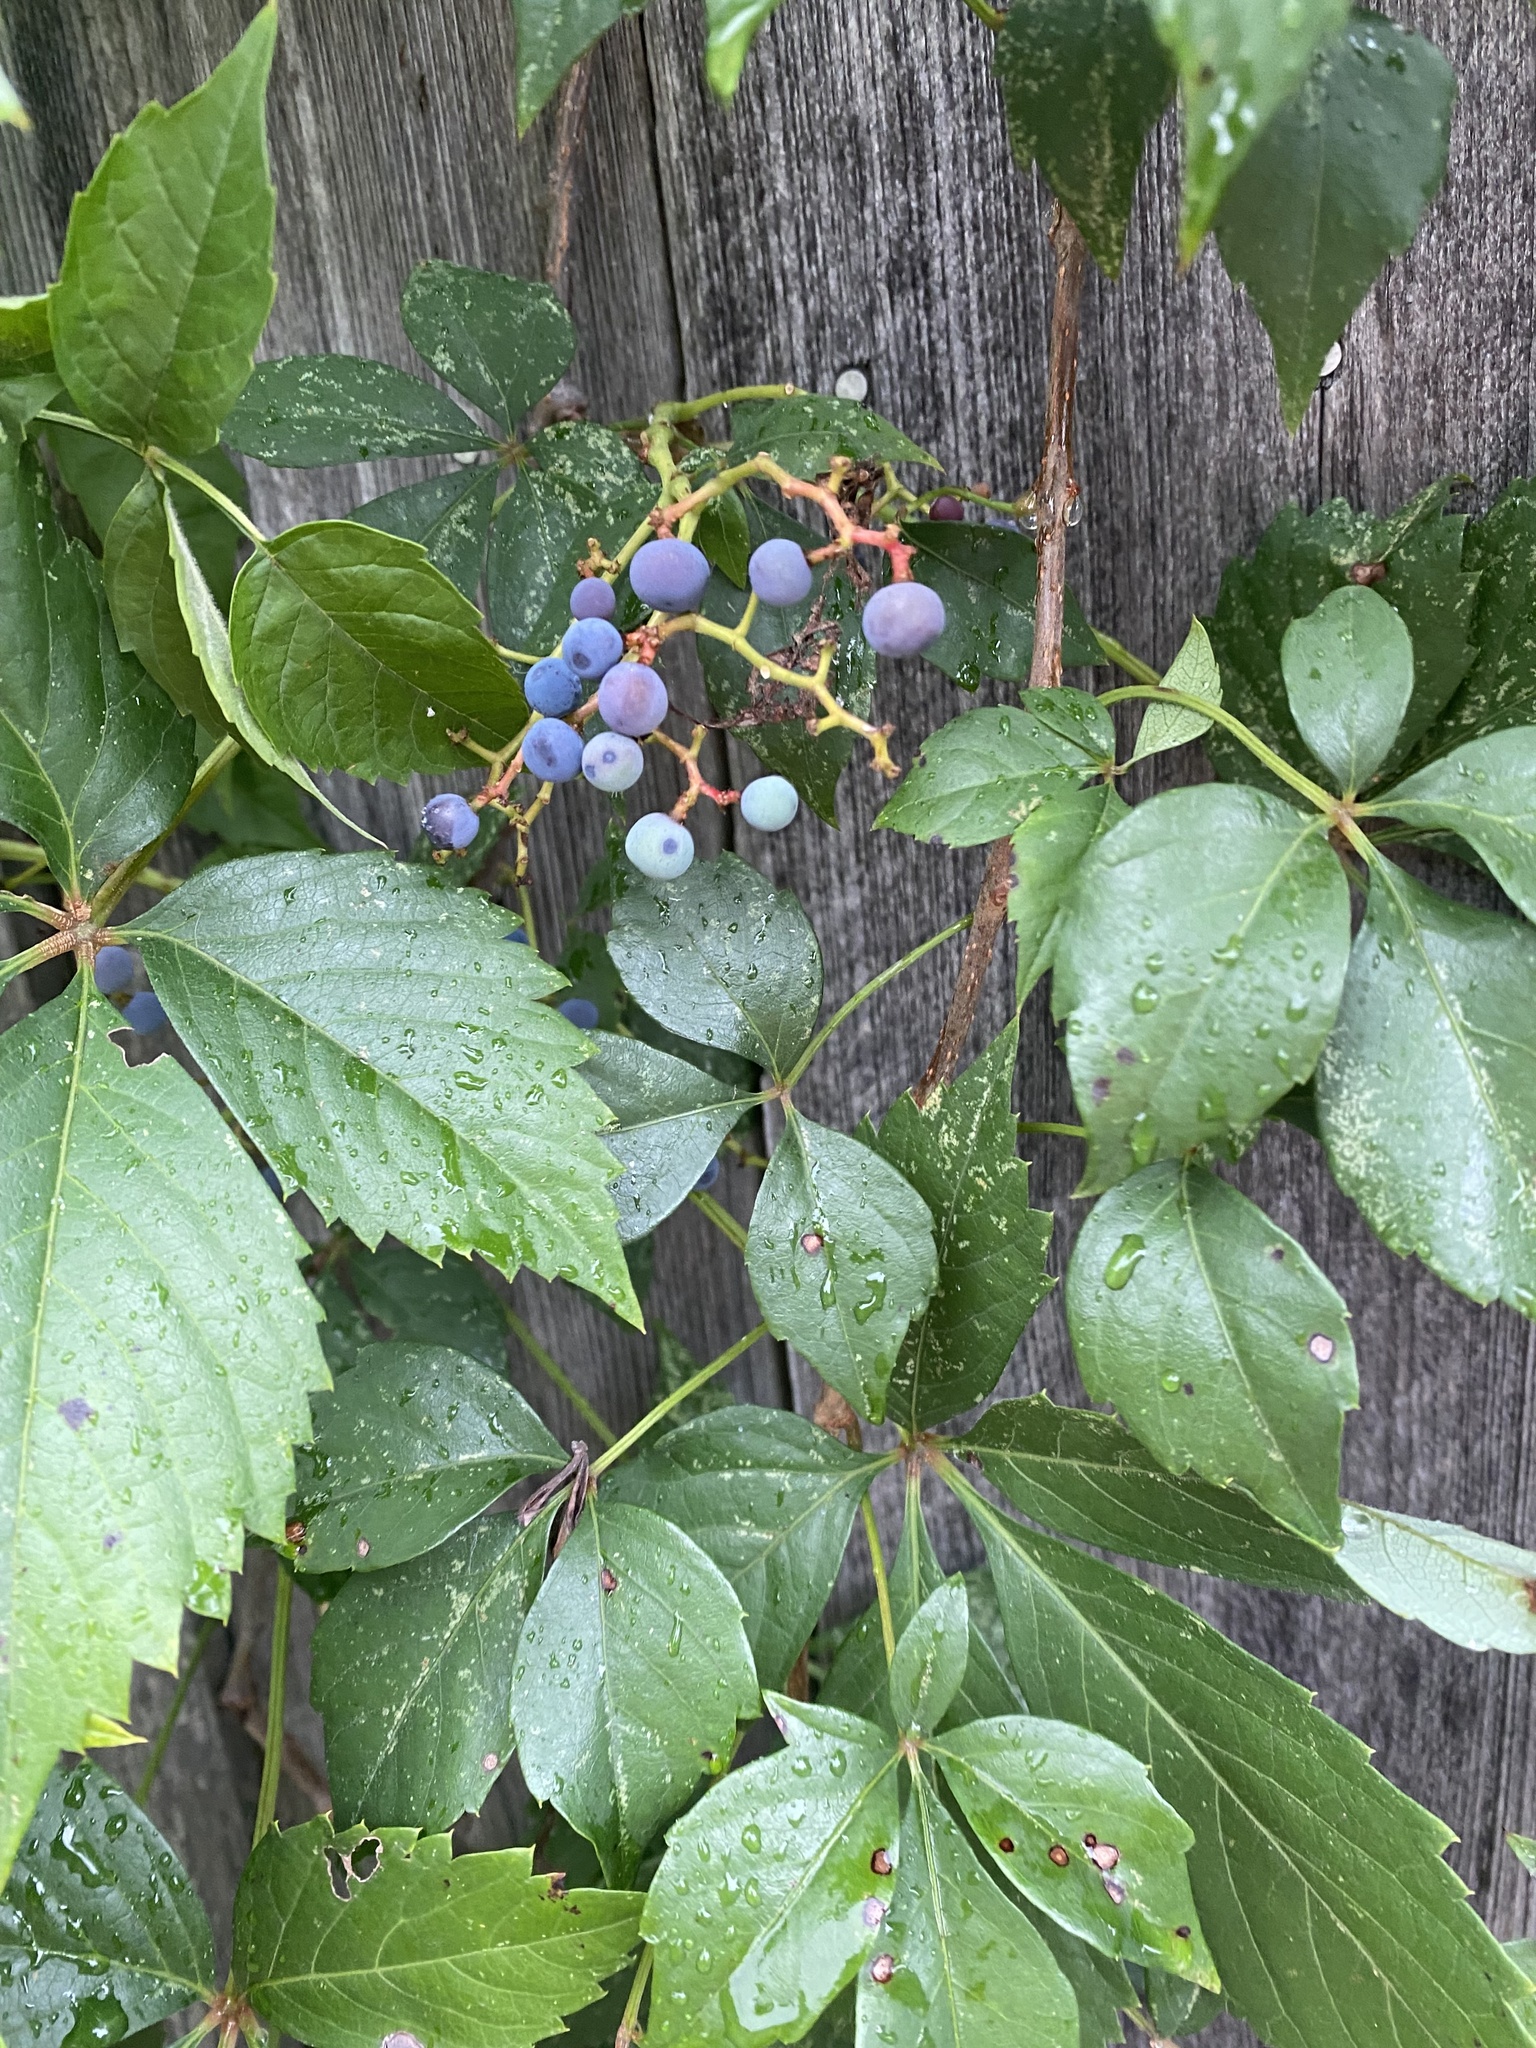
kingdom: Plantae
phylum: Tracheophyta
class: Magnoliopsida
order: Vitales
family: Vitaceae
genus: Parthenocissus
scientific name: Parthenocissus quinquefolia
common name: Virginia-creeper
